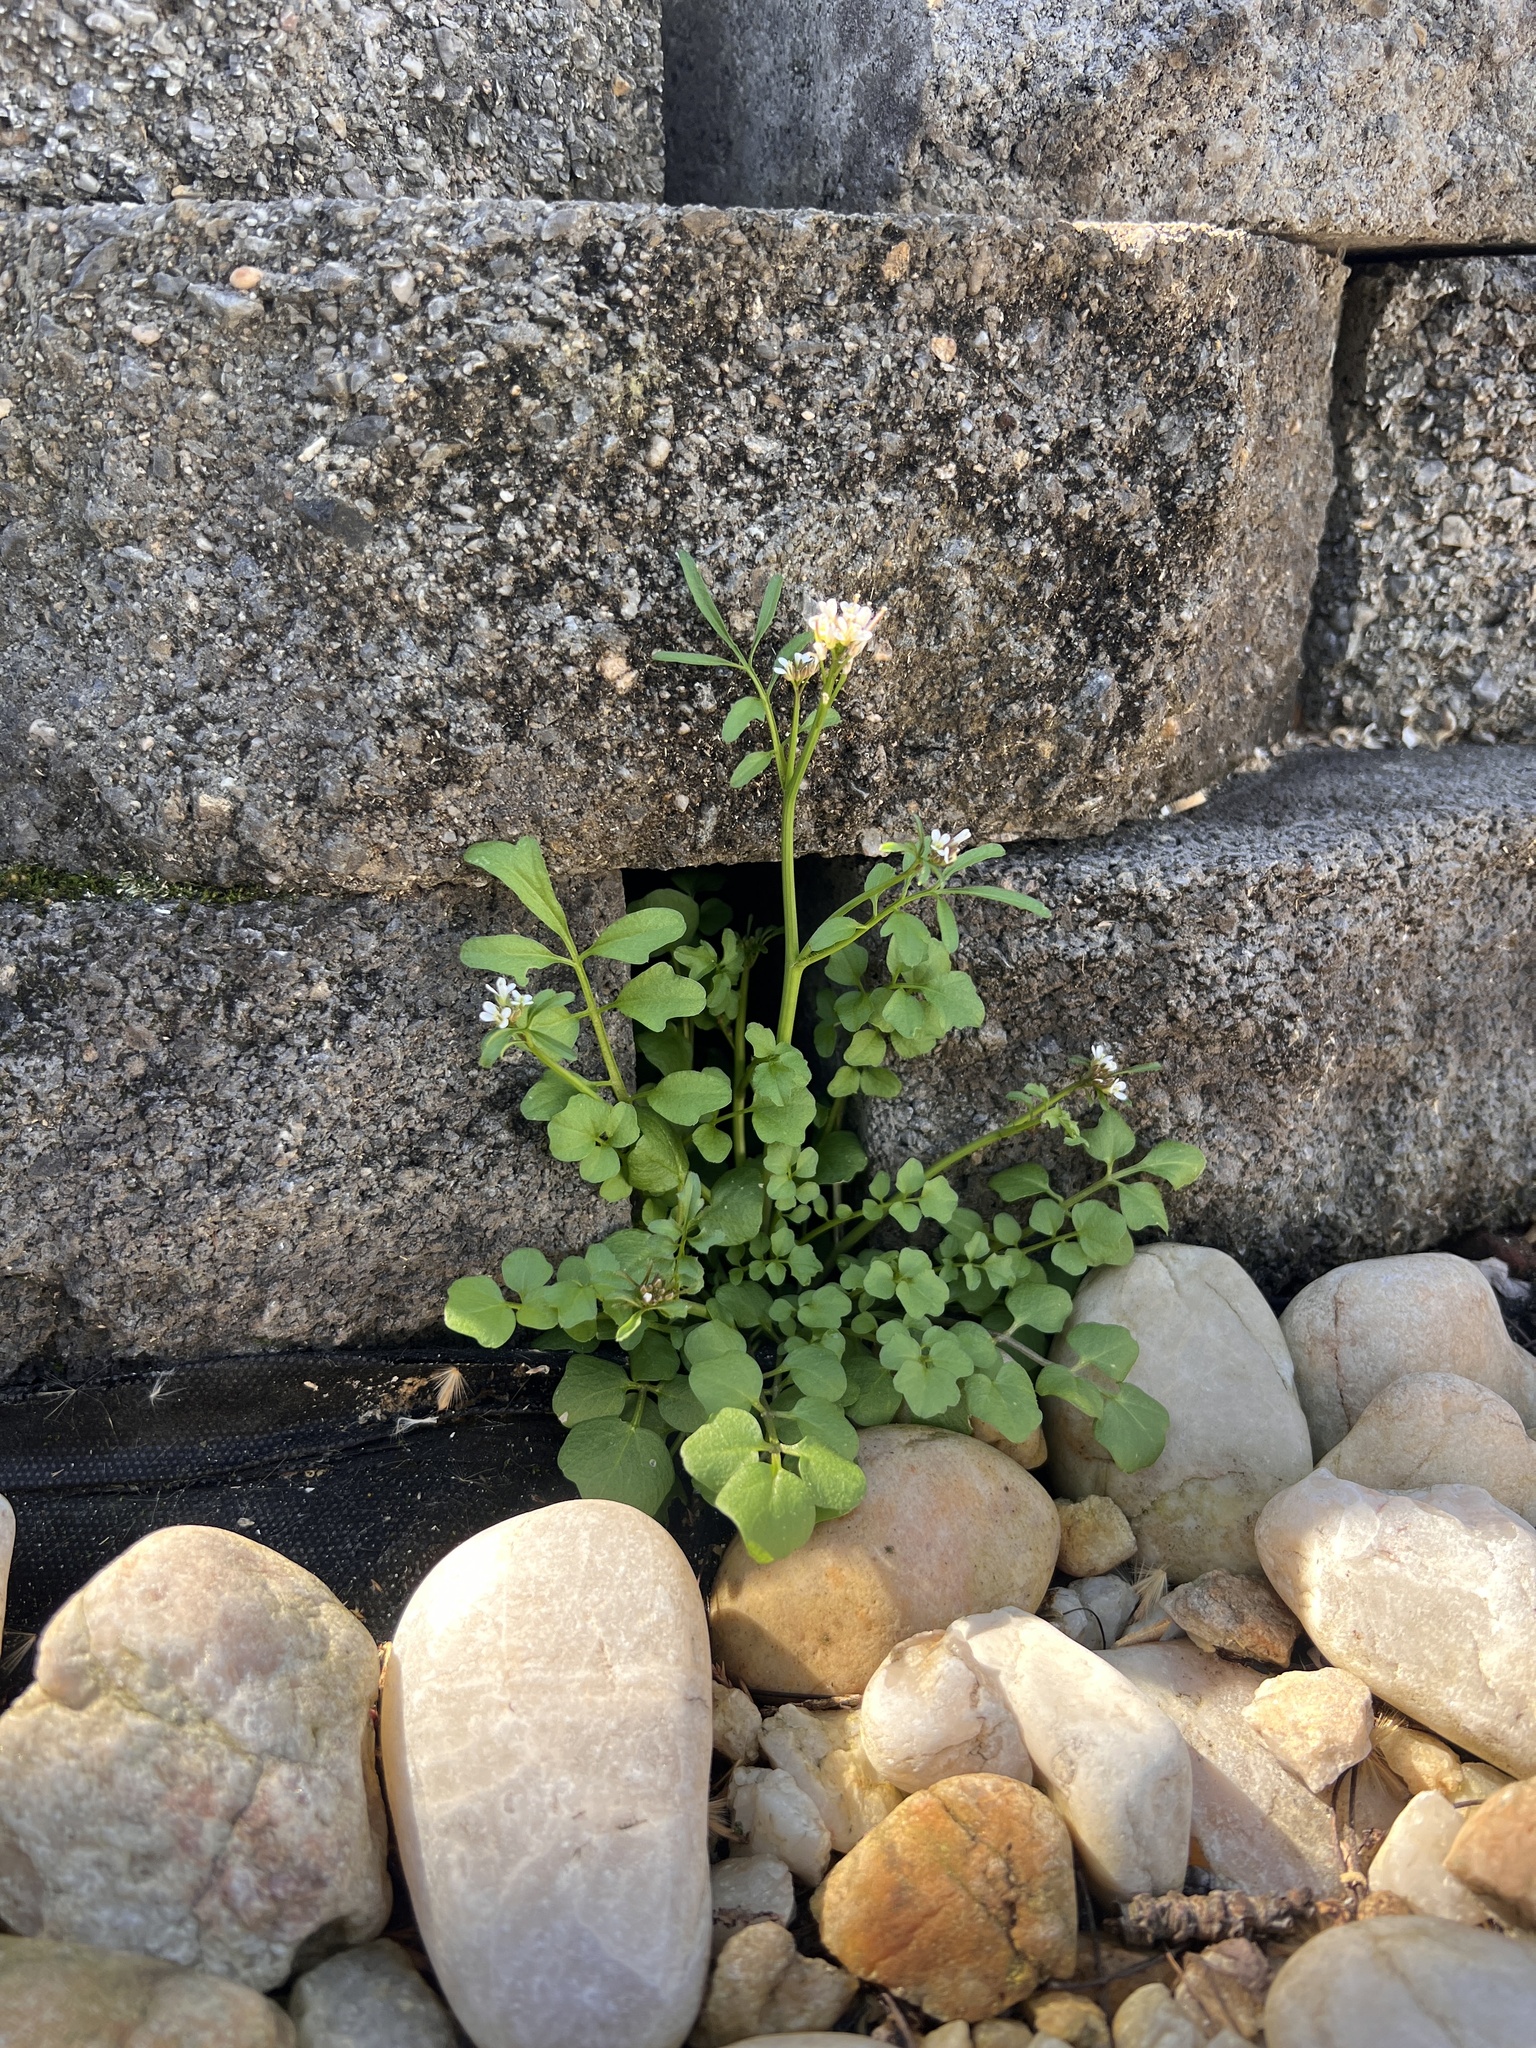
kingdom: Plantae
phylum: Tracheophyta
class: Magnoliopsida
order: Brassicales
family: Brassicaceae
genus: Cardamine
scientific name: Cardamine hirsuta
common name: Hairy bittercress
